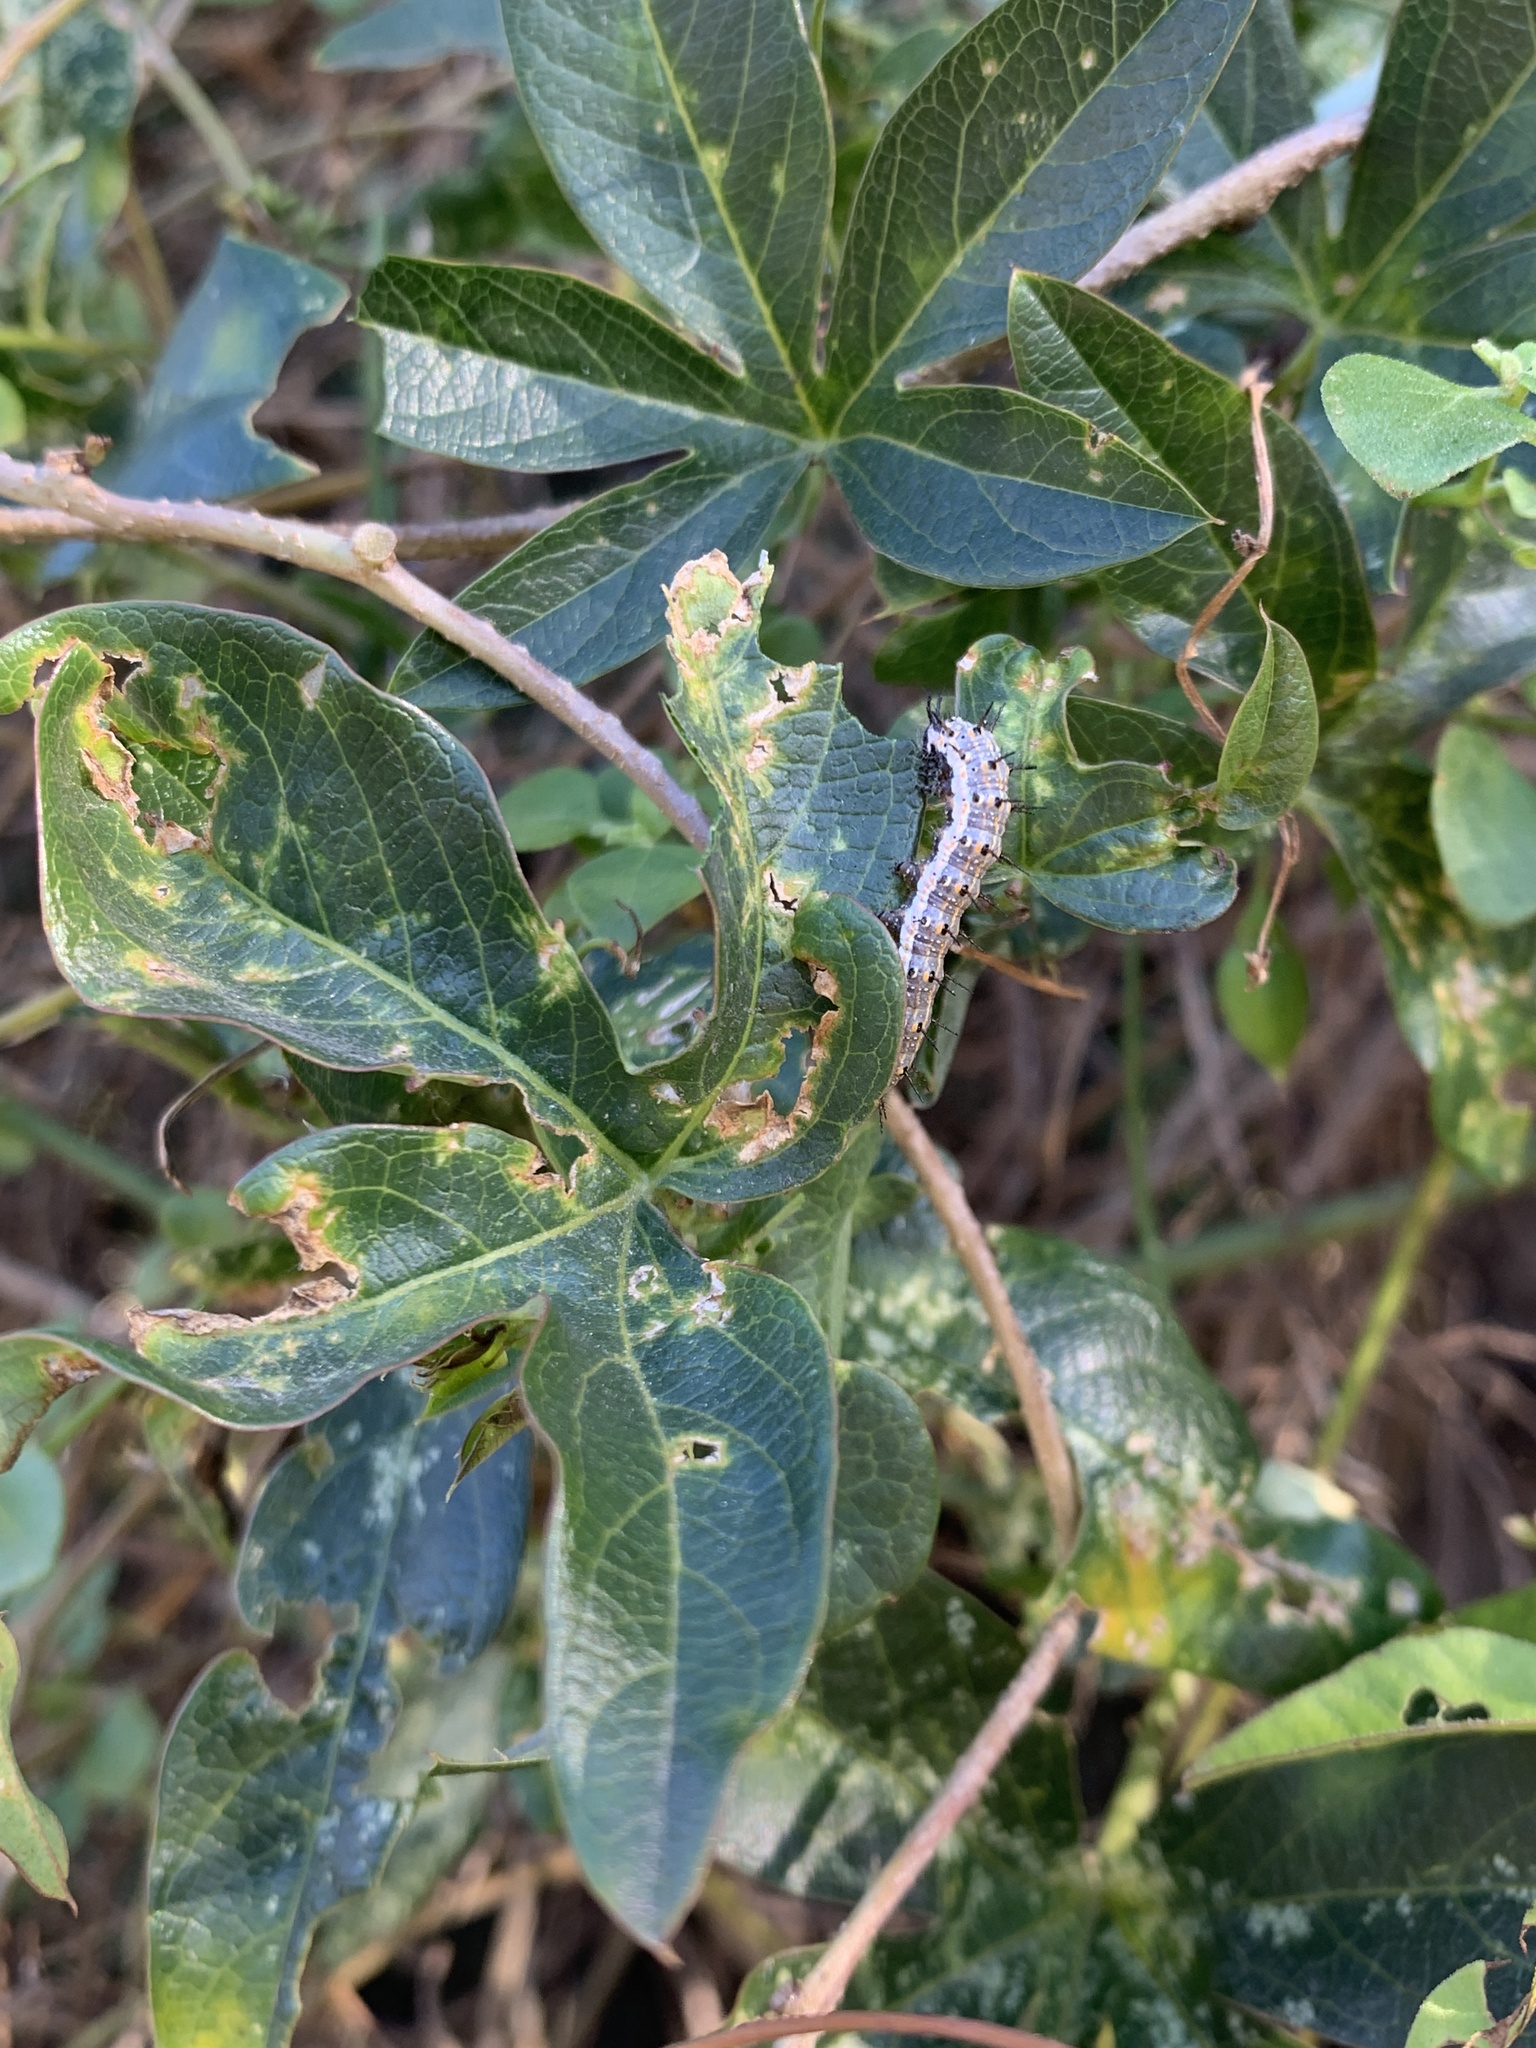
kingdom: Plantae
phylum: Tracheophyta
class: Magnoliopsida
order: Malpighiales
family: Passifloraceae
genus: Passiflora
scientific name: Passiflora caerulea
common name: Blue passionflower
